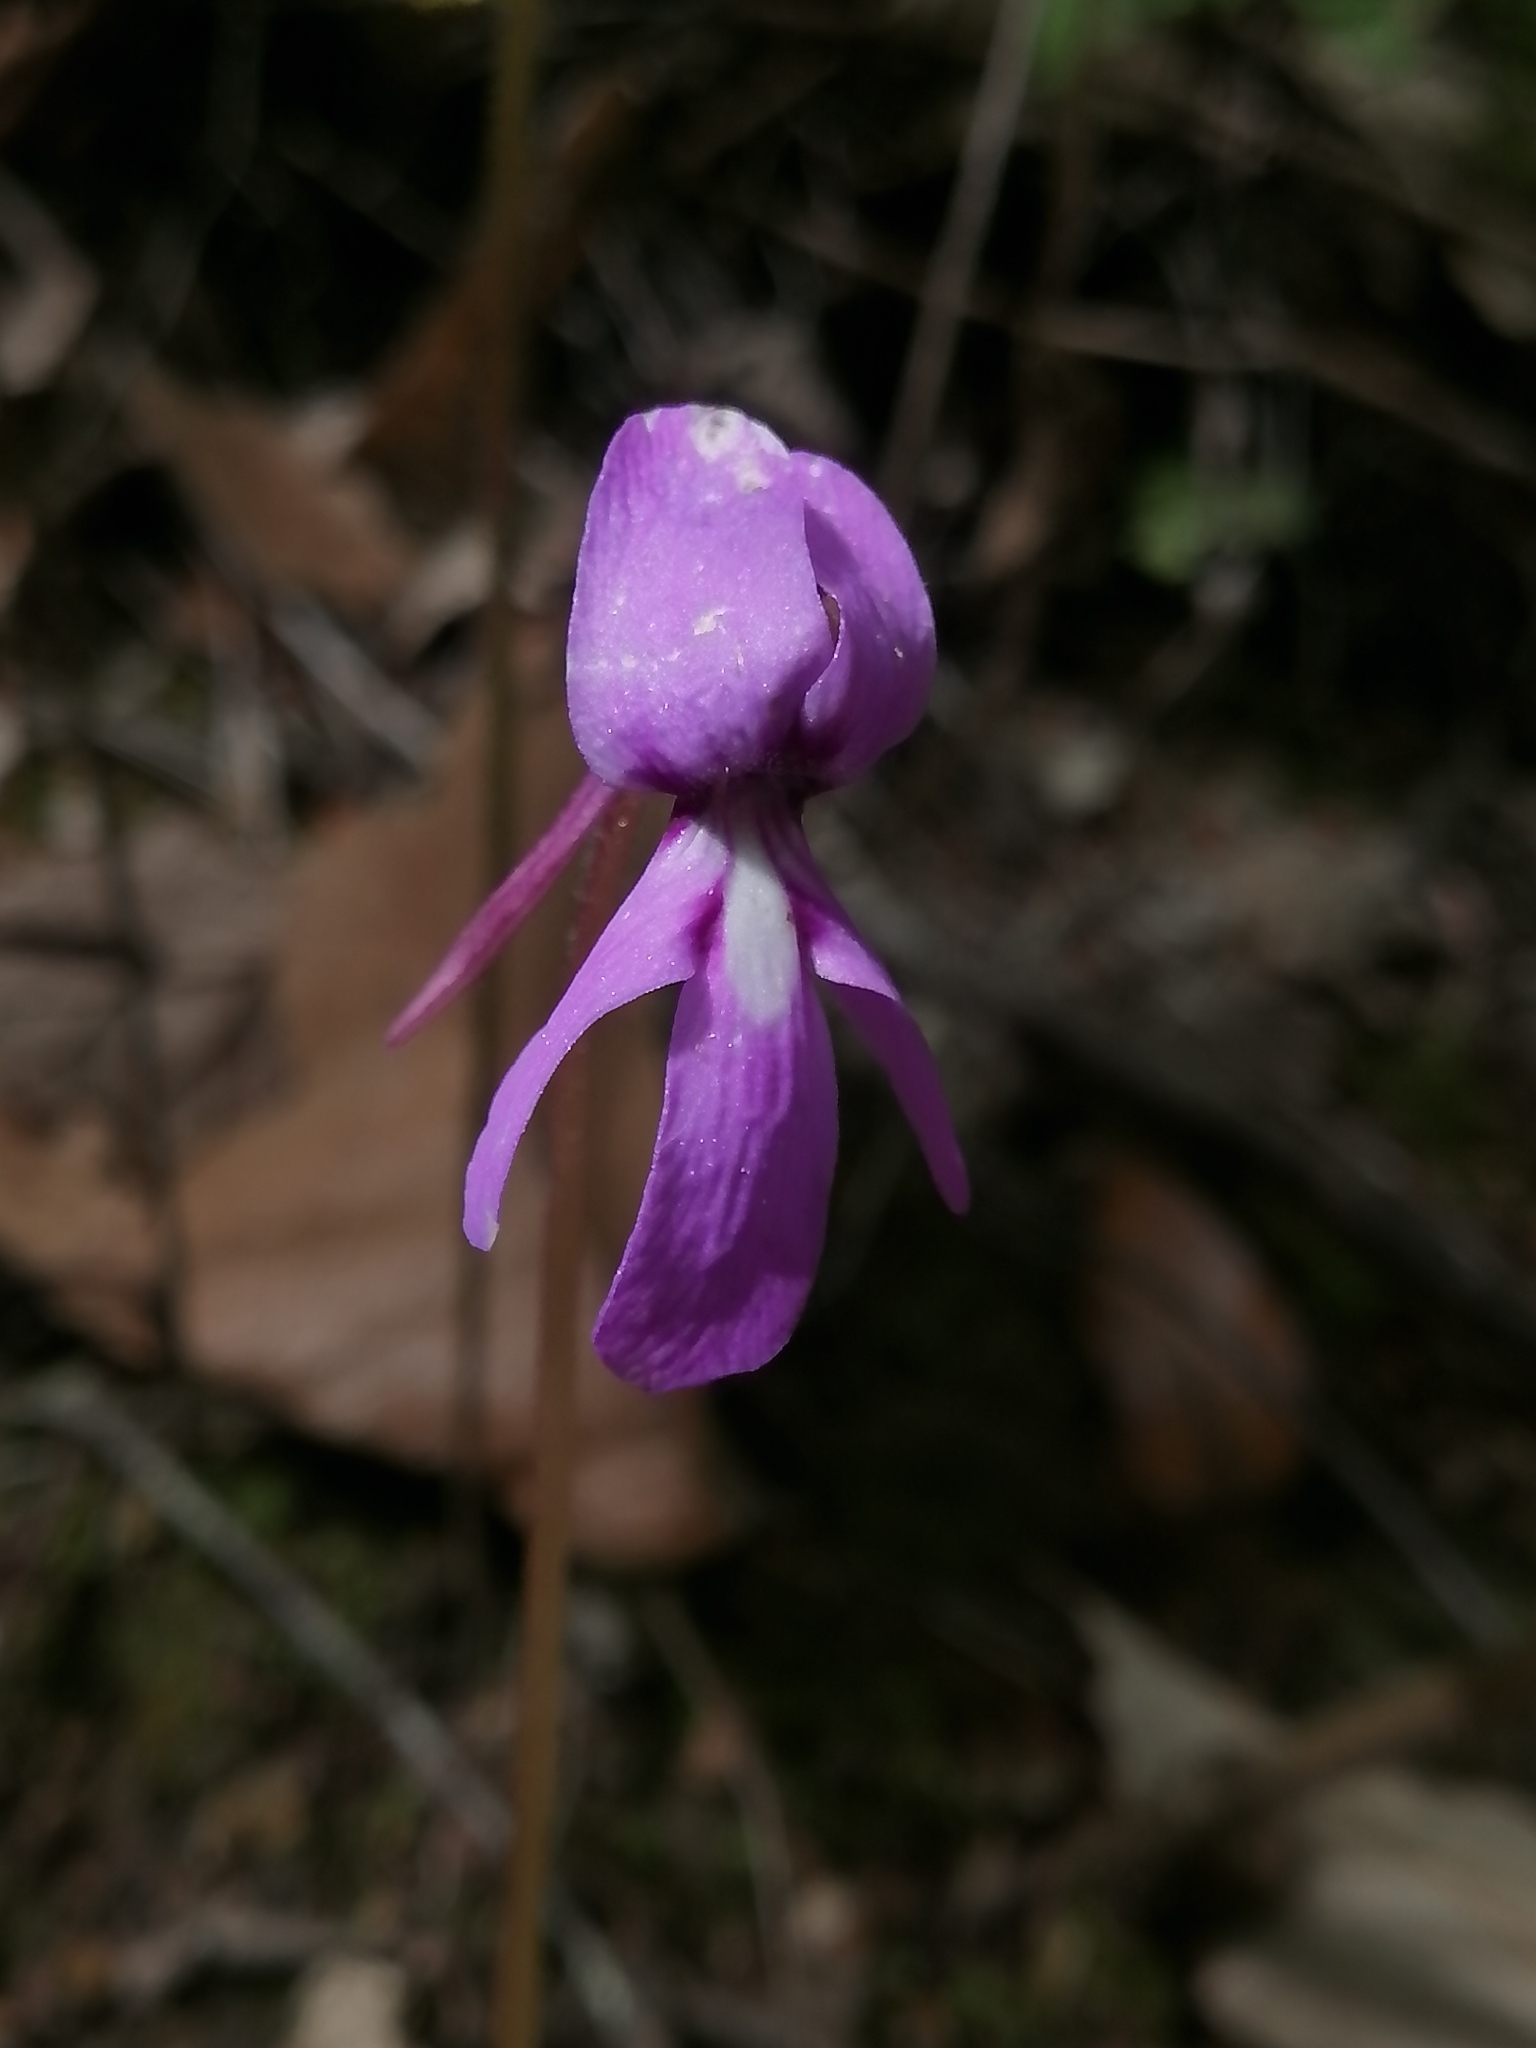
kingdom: Plantae
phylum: Tracheophyta
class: Magnoliopsida
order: Lamiales
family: Lentibulariaceae
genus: Pinguicula
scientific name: Pinguicula moranensis
